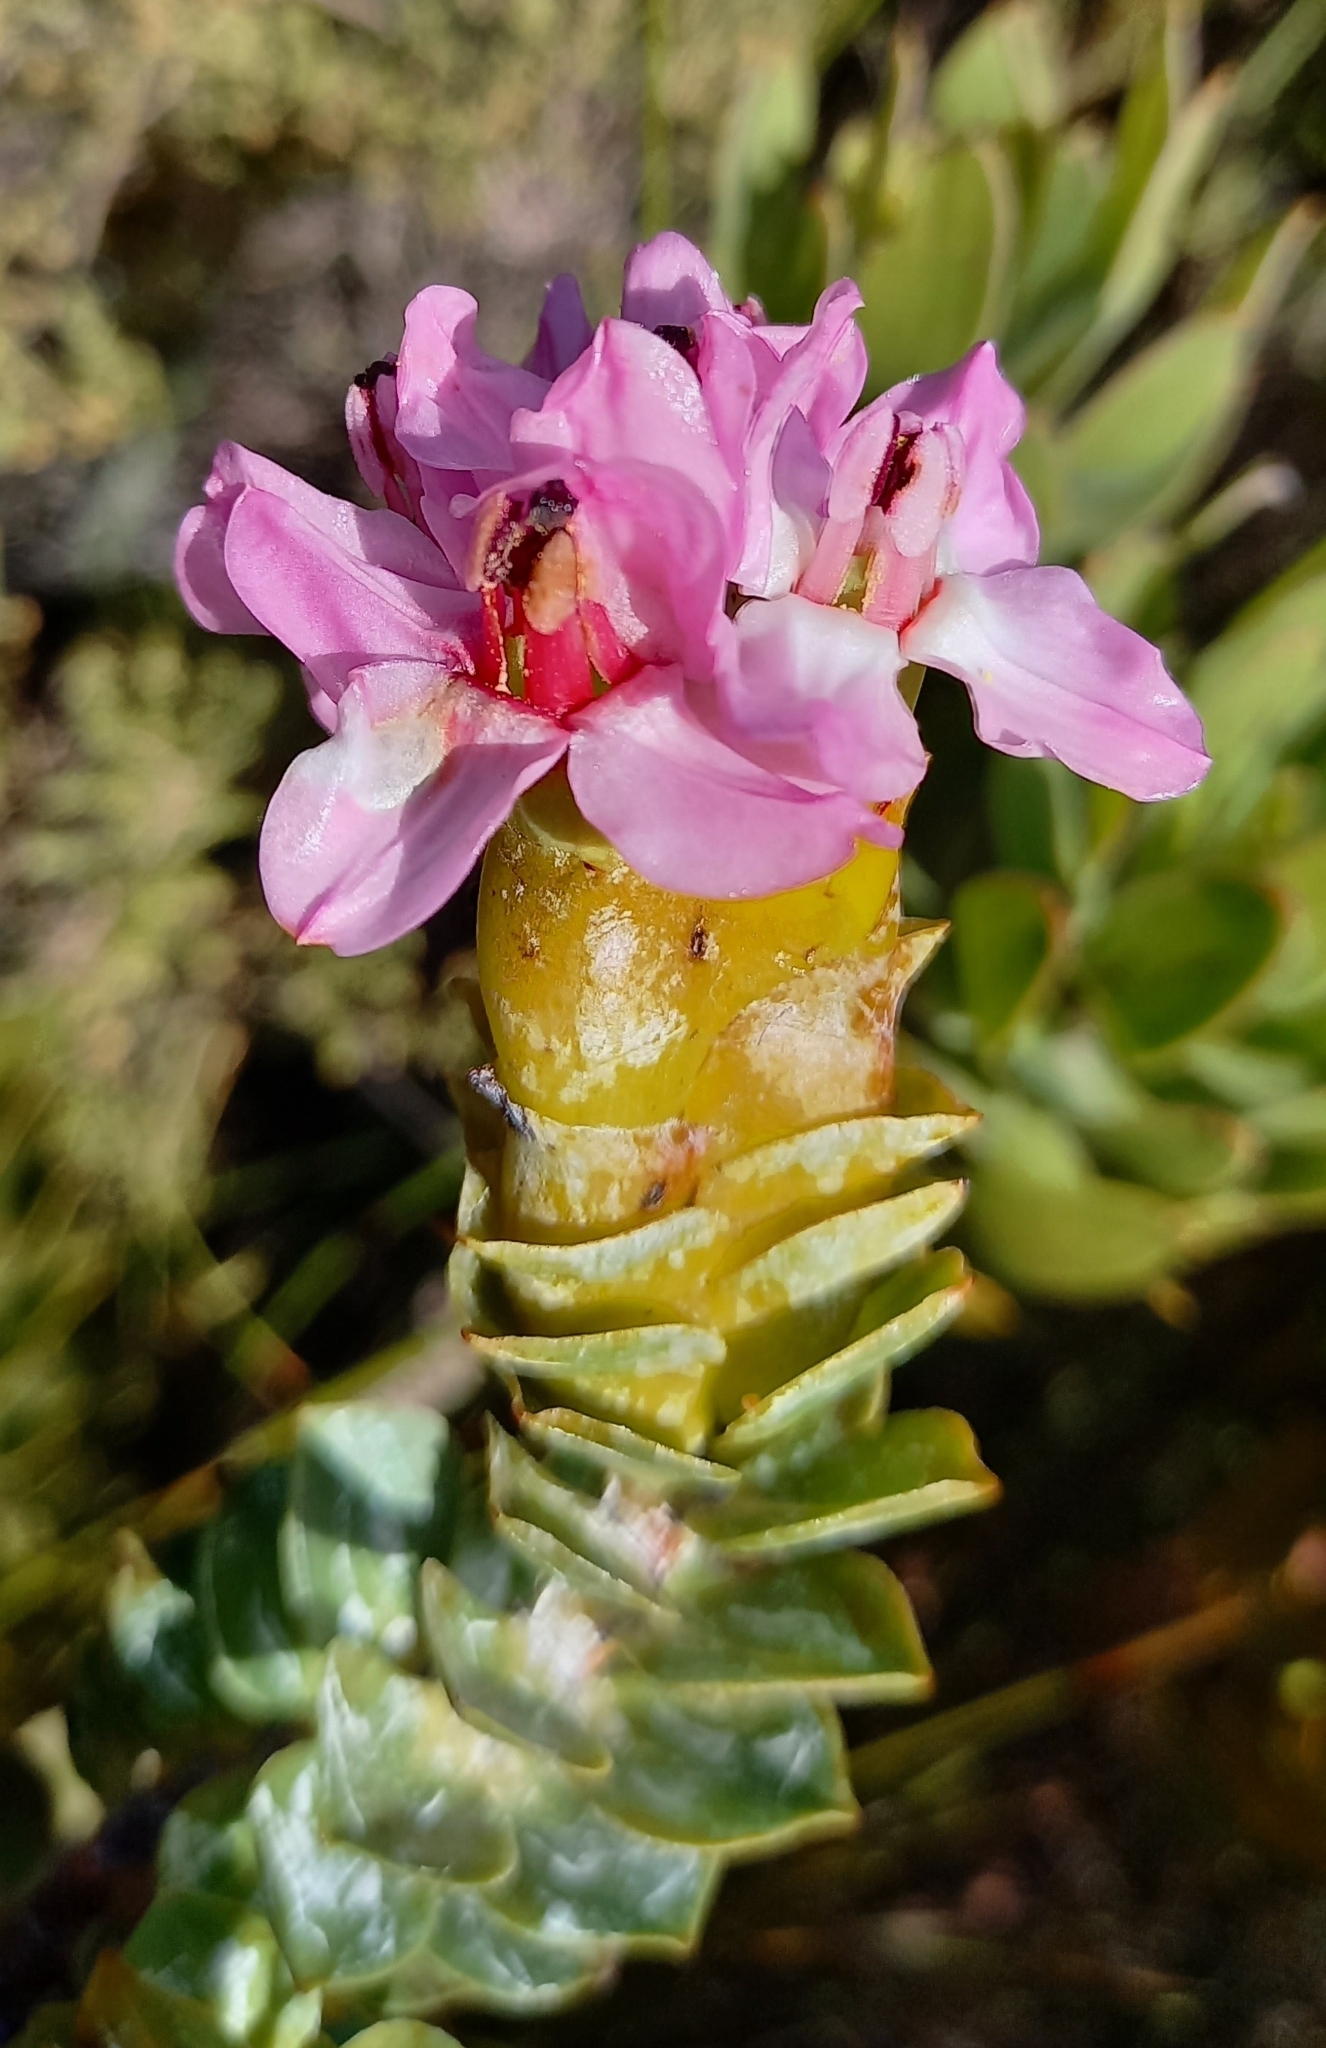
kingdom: Plantae
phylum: Tracheophyta
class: Magnoliopsida
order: Myrtales
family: Penaeaceae
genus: Saltera
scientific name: Saltera sarcocolla
